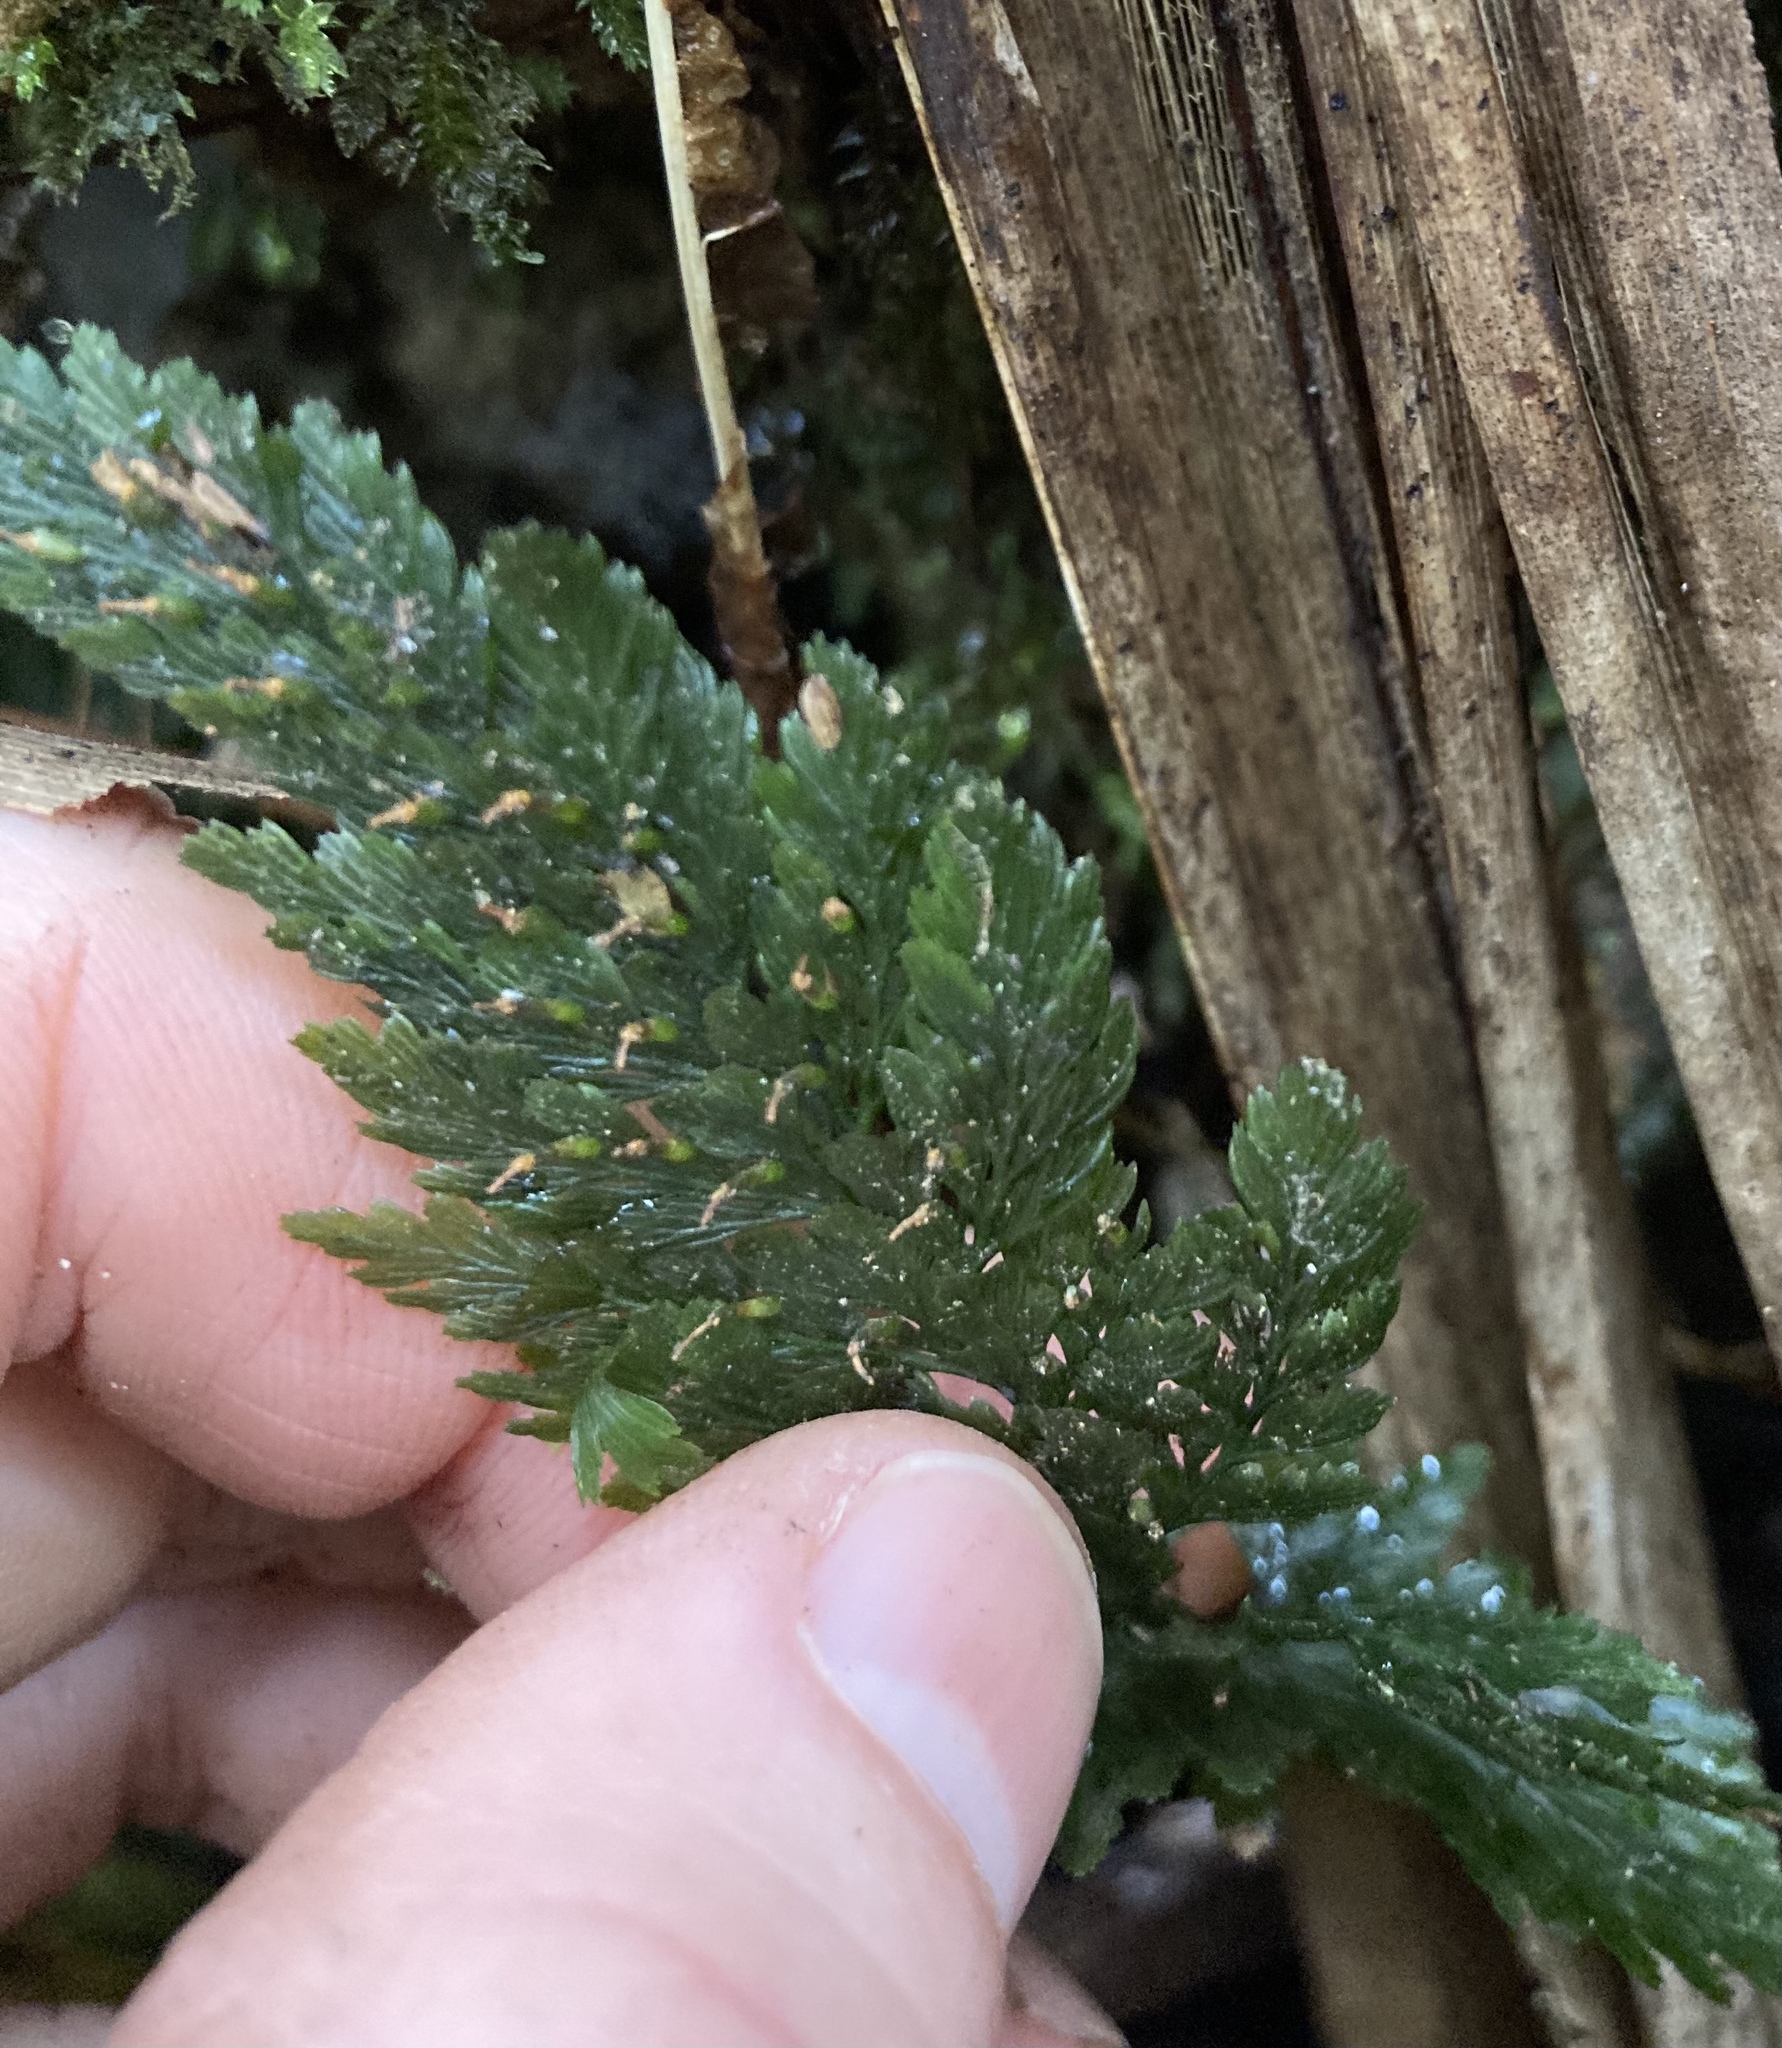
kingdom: Plantae
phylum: Tracheophyta
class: Polypodiopsida
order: Hymenophyllales
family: Hymenophyllaceae
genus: Abrodictyum
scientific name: Abrodictyum elongatum
